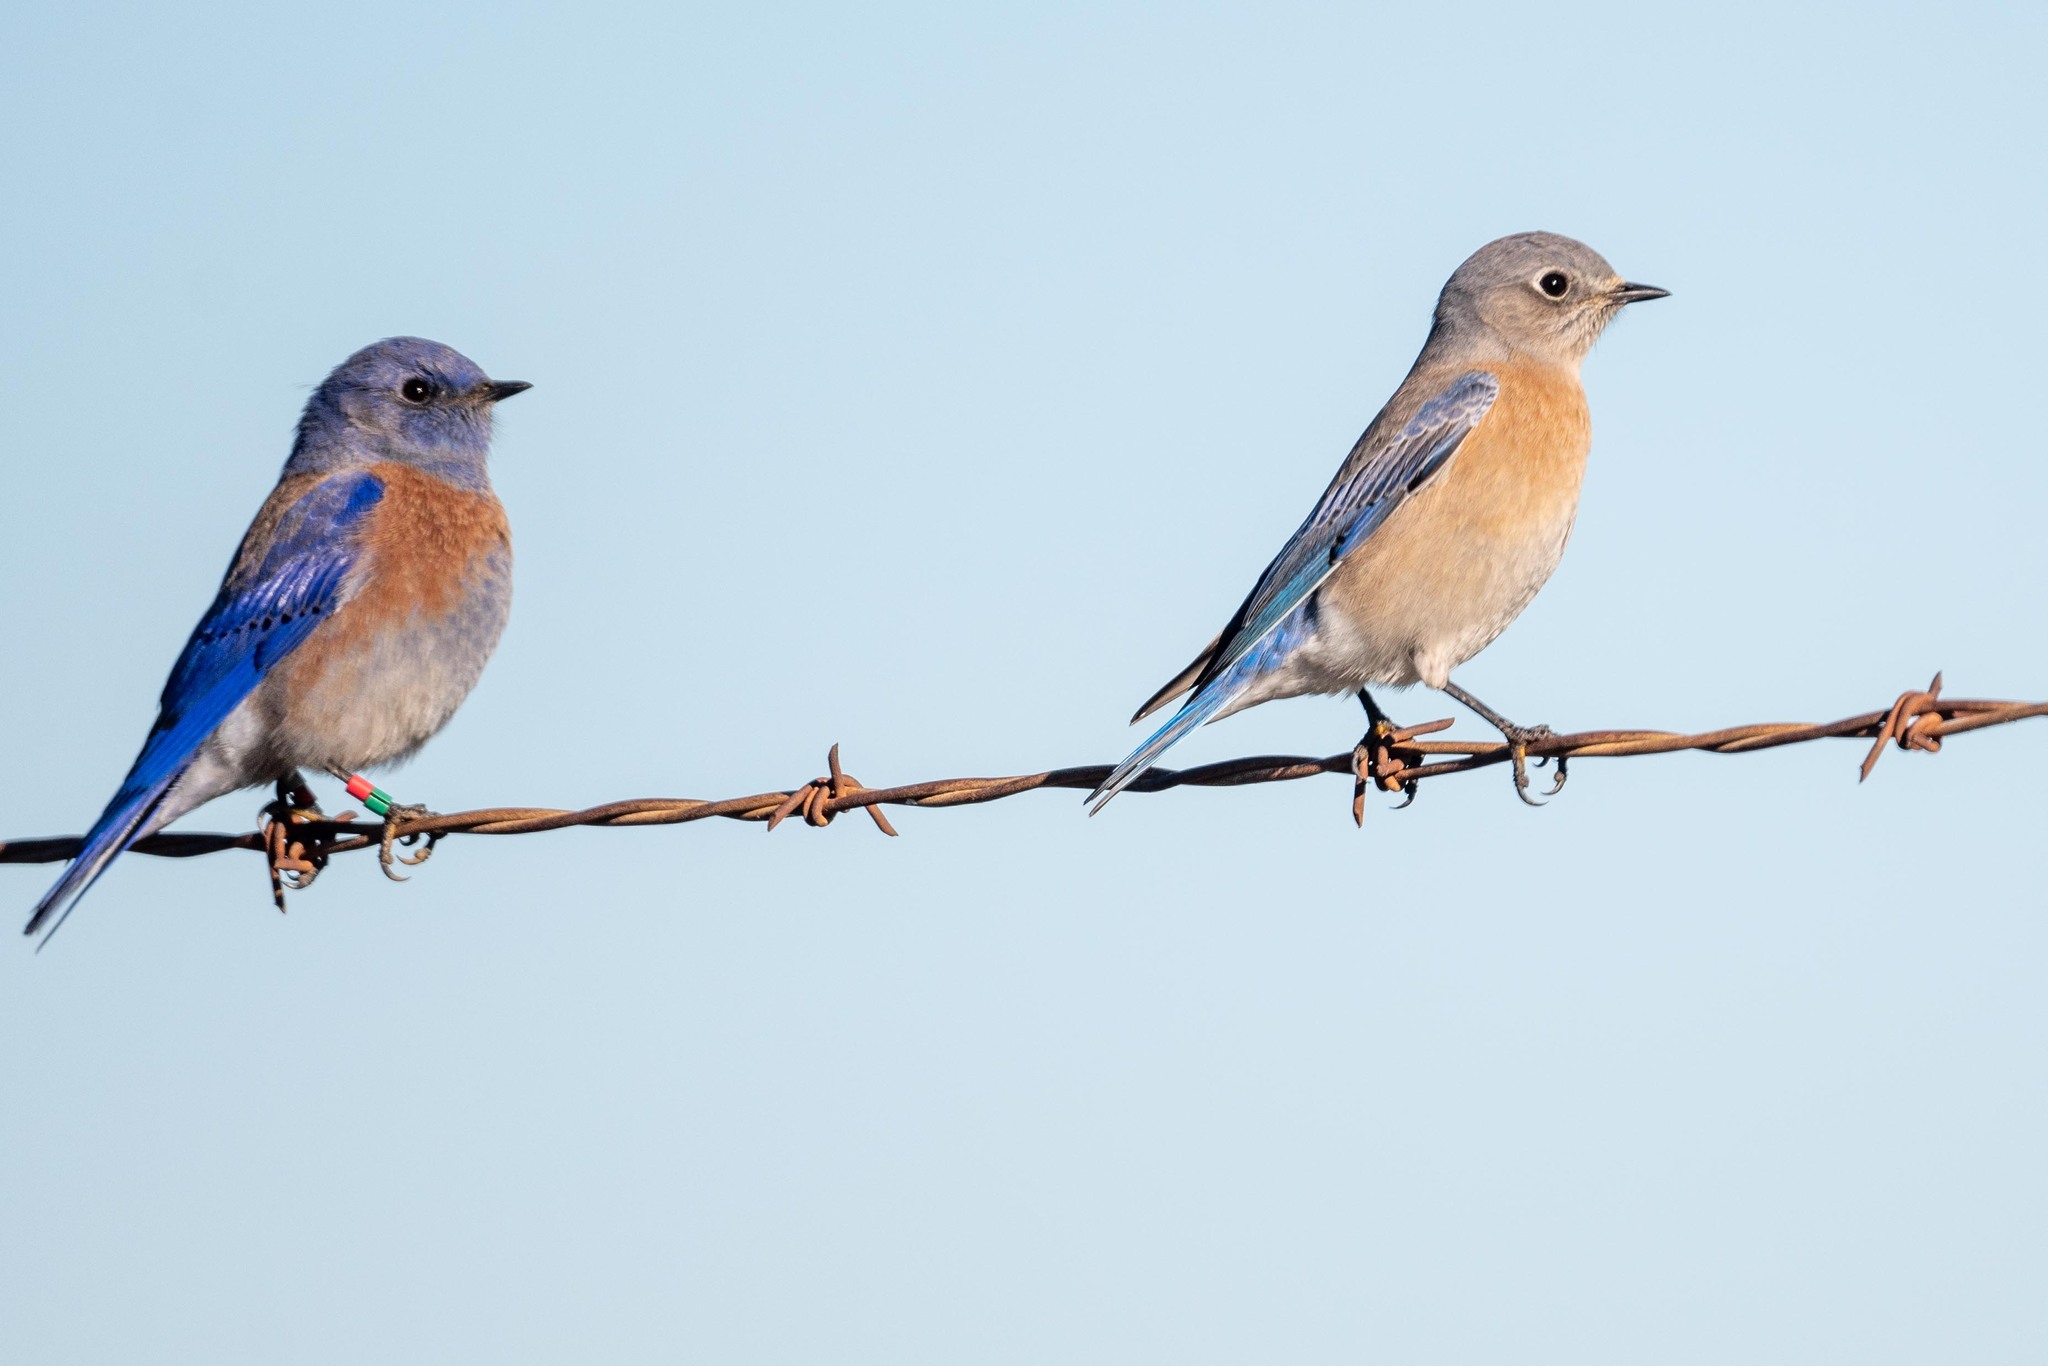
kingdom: Animalia
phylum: Chordata
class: Aves
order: Passeriformes
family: Turdidae
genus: Sialia
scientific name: Sialia mexicana
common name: Western bluebird
